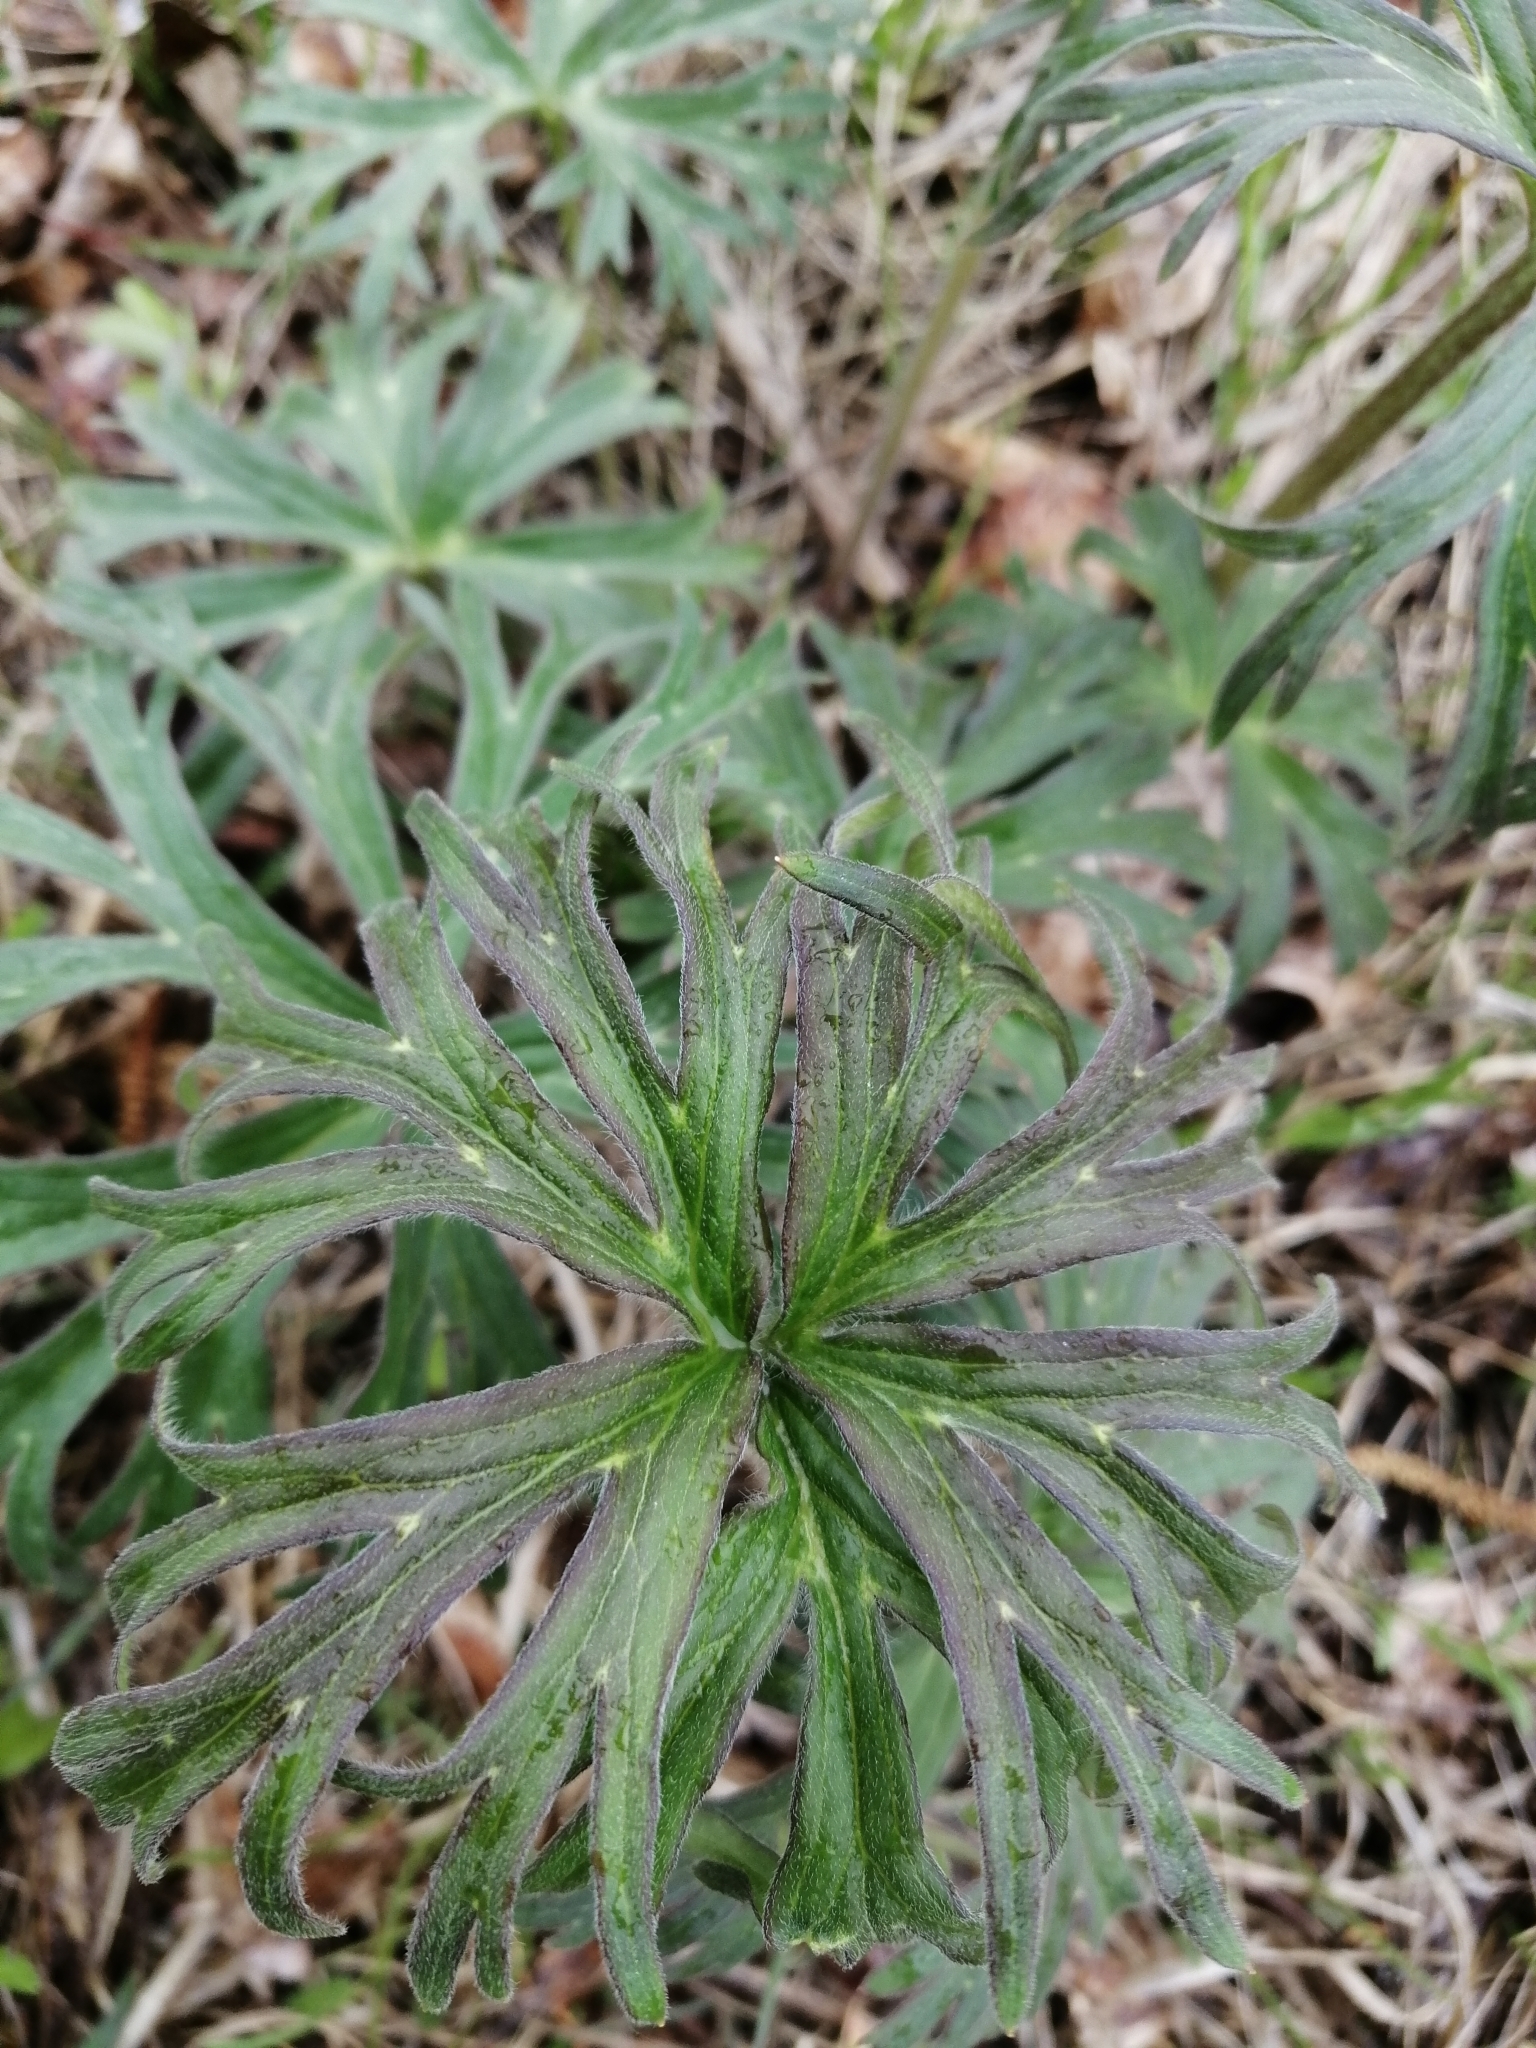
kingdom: Plantae
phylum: Tracheophyta
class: Magnoliopsida
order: Ranunculales
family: Ranunculaceae
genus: Aconitum
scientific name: Aconitum barbatum
